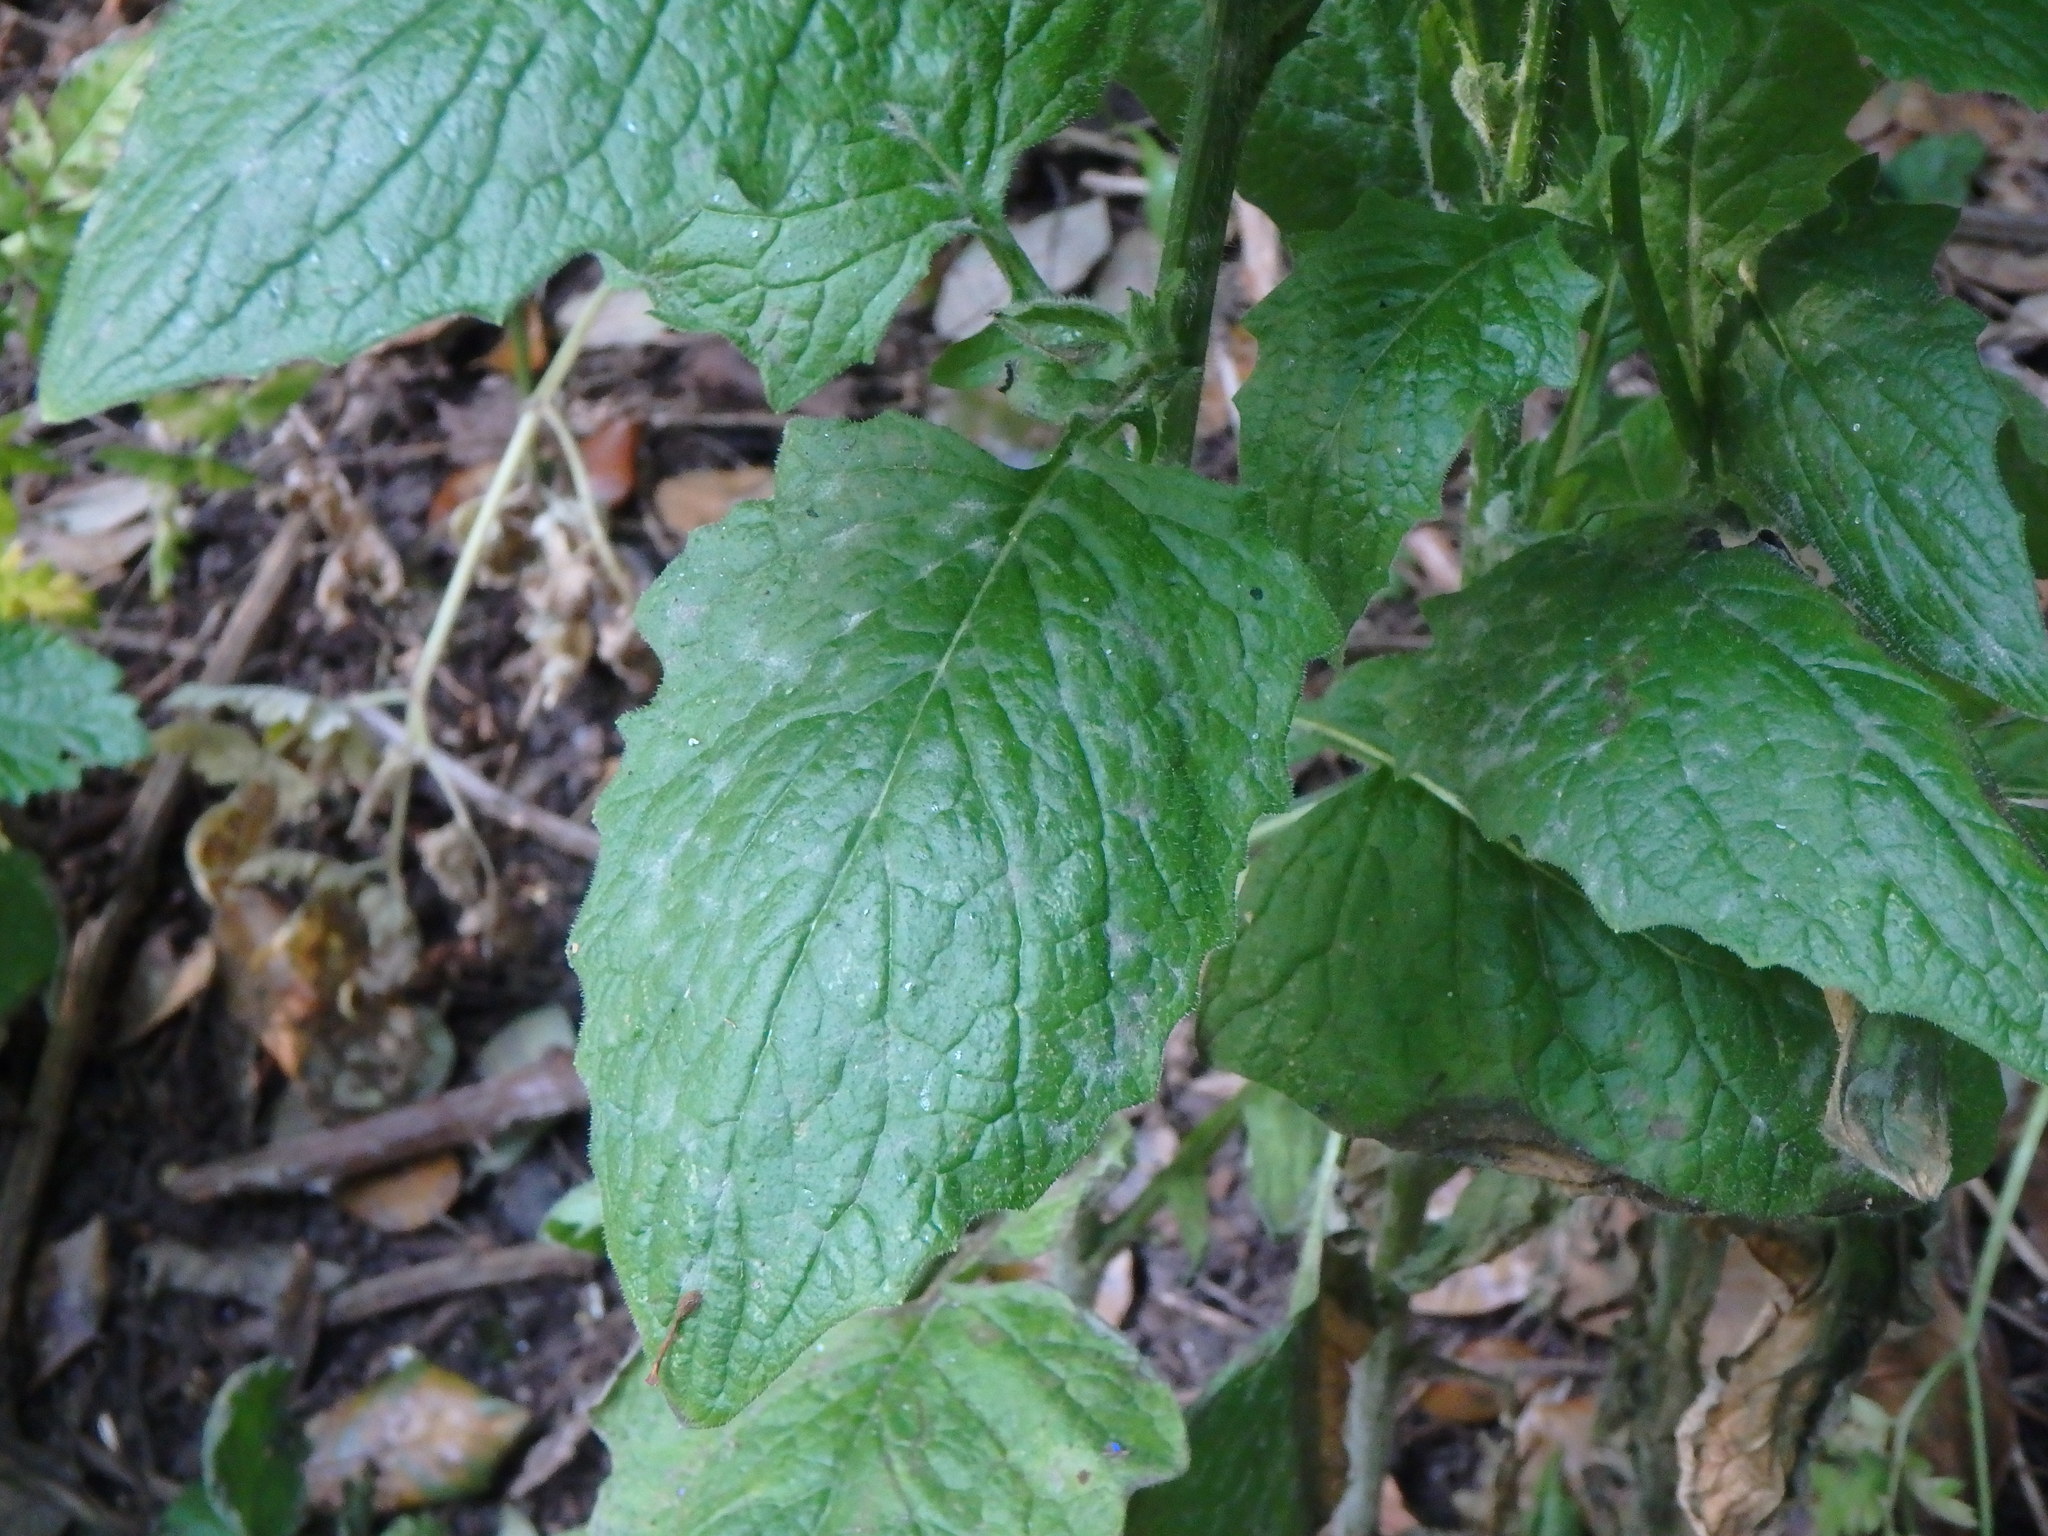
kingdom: Plantae
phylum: Tracheophyta
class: Magnoliopsida
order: Asterales
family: Asteraceae
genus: Lapsana
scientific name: Lapsana communis
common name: Nipplewort
